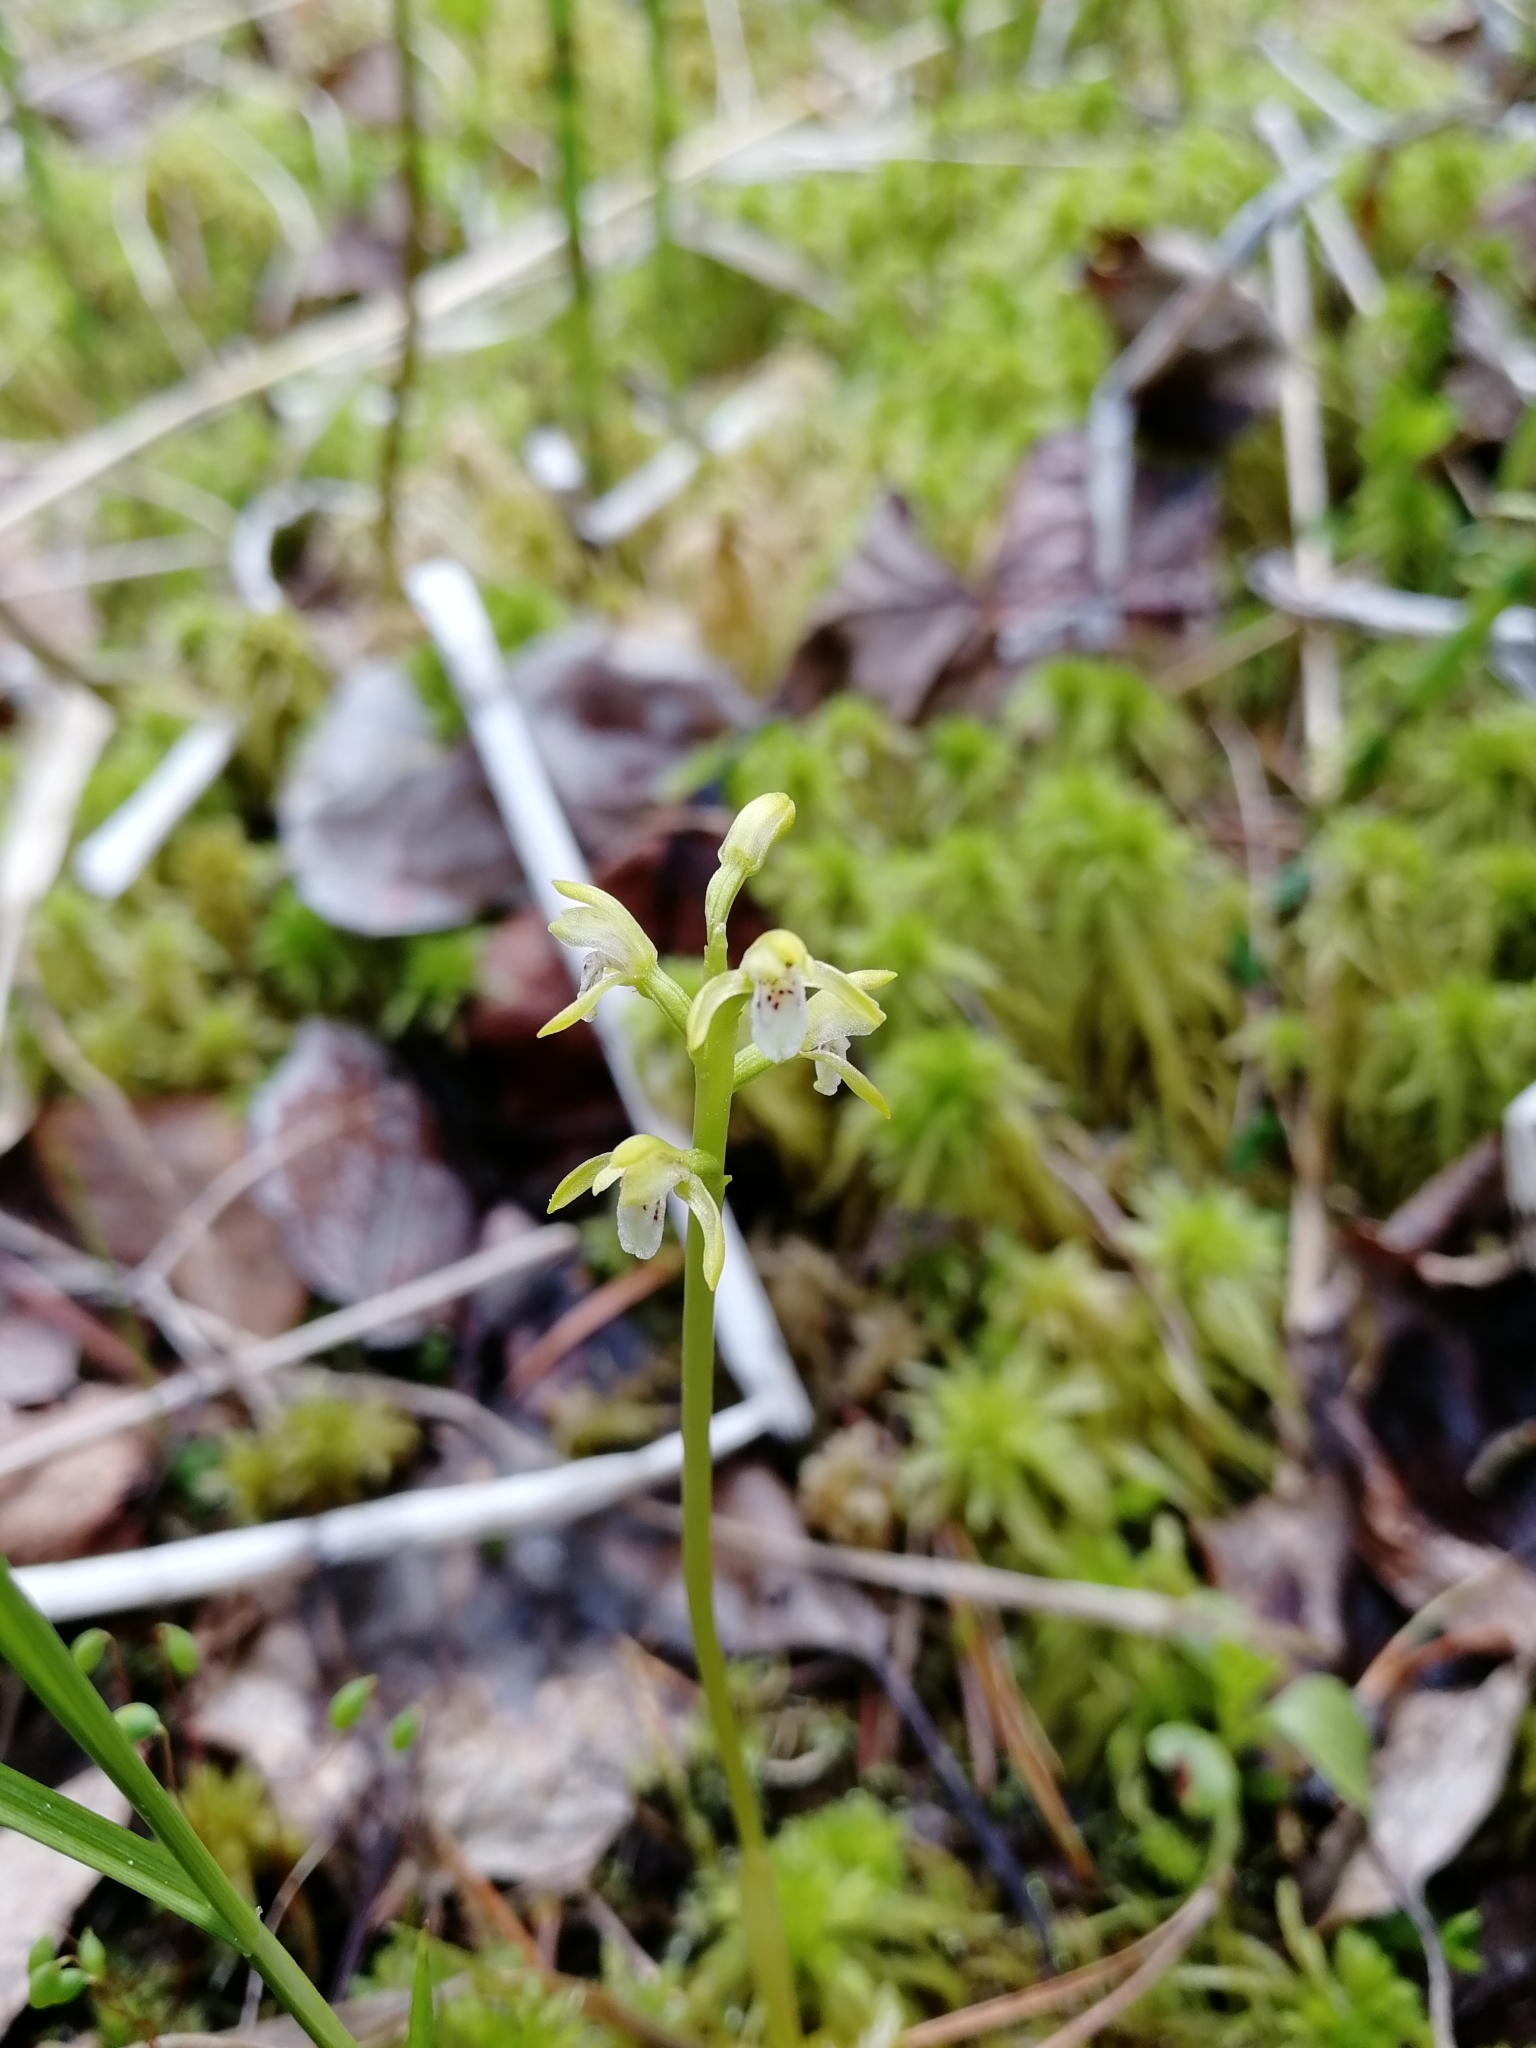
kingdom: Plantae
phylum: Tracheophyta
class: Liliopsida
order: Asparagales
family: Orchidaceae
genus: Corallorhiza
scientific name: Corallorhiza trifida
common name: Yellow coralroot
